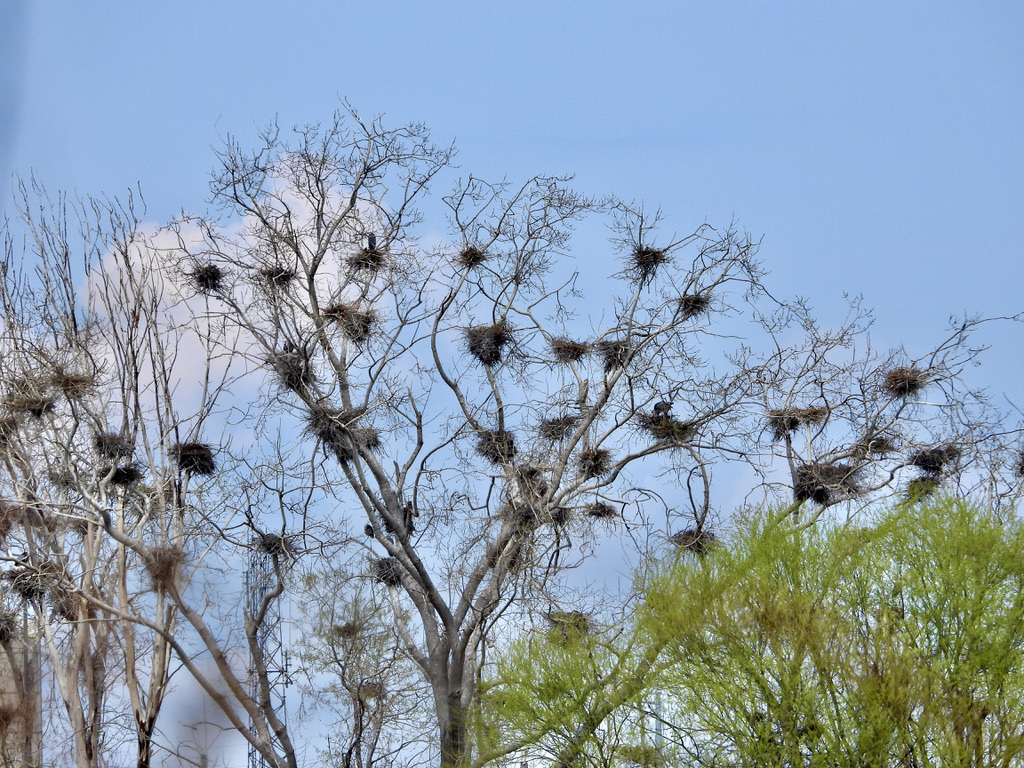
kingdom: Animalia
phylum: Chordata
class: Aves
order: Pelecaniformes
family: Ardeidae
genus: Ardea
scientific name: Ardea herodias
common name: Great blue heron
